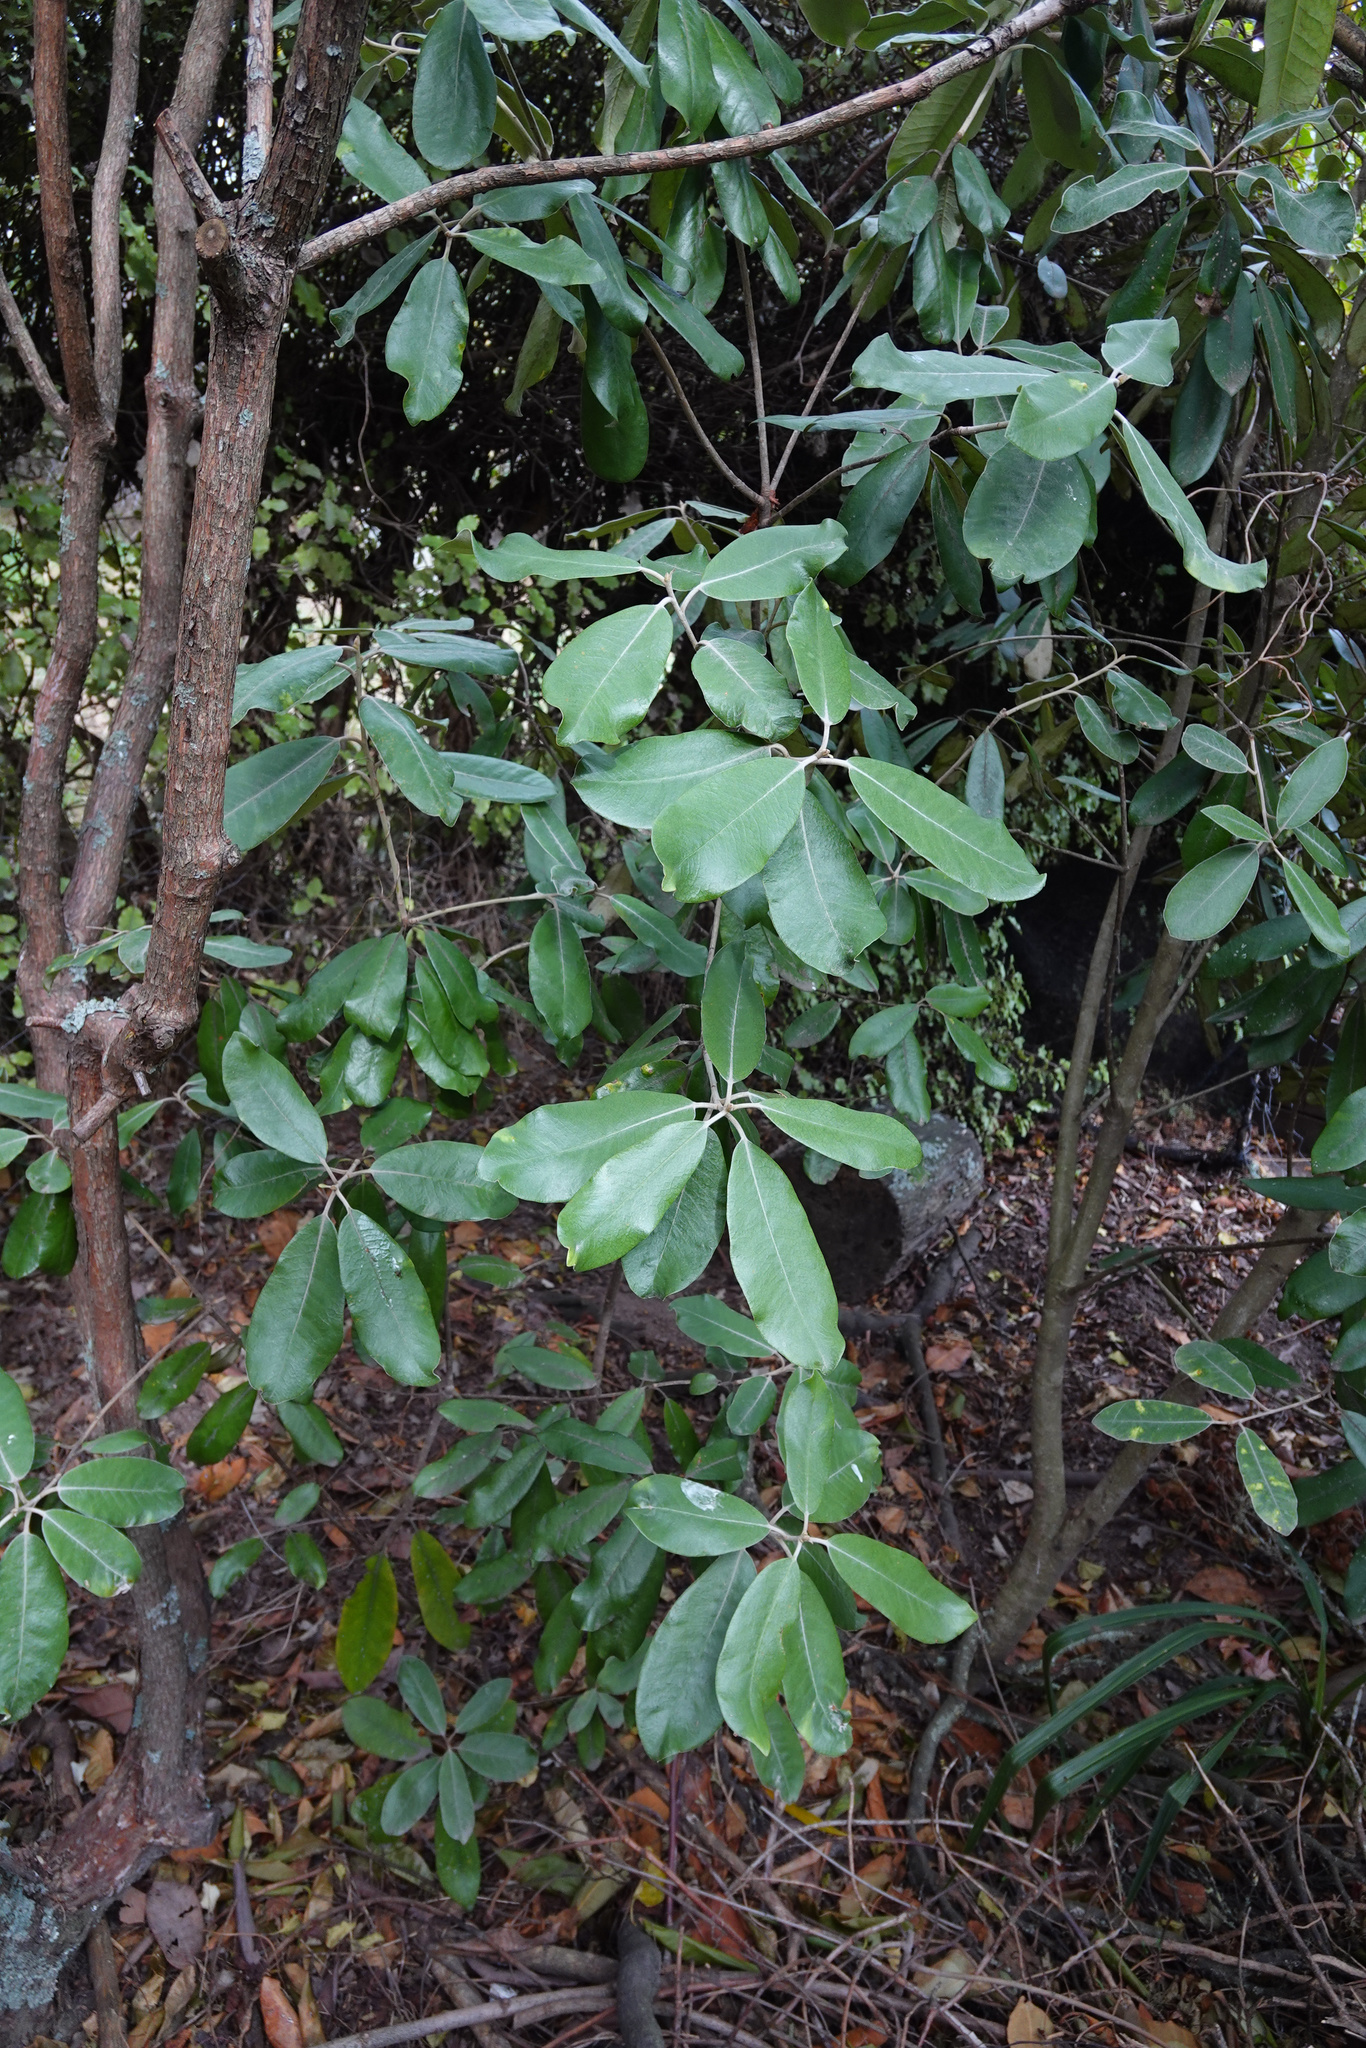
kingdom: Plantae
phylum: Tracheophyta
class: Magnoliopsida
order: Apiales
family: Pittosporaceae
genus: Pittosporum
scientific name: Pittosporum ralphii
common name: Ralph's desertwillow
